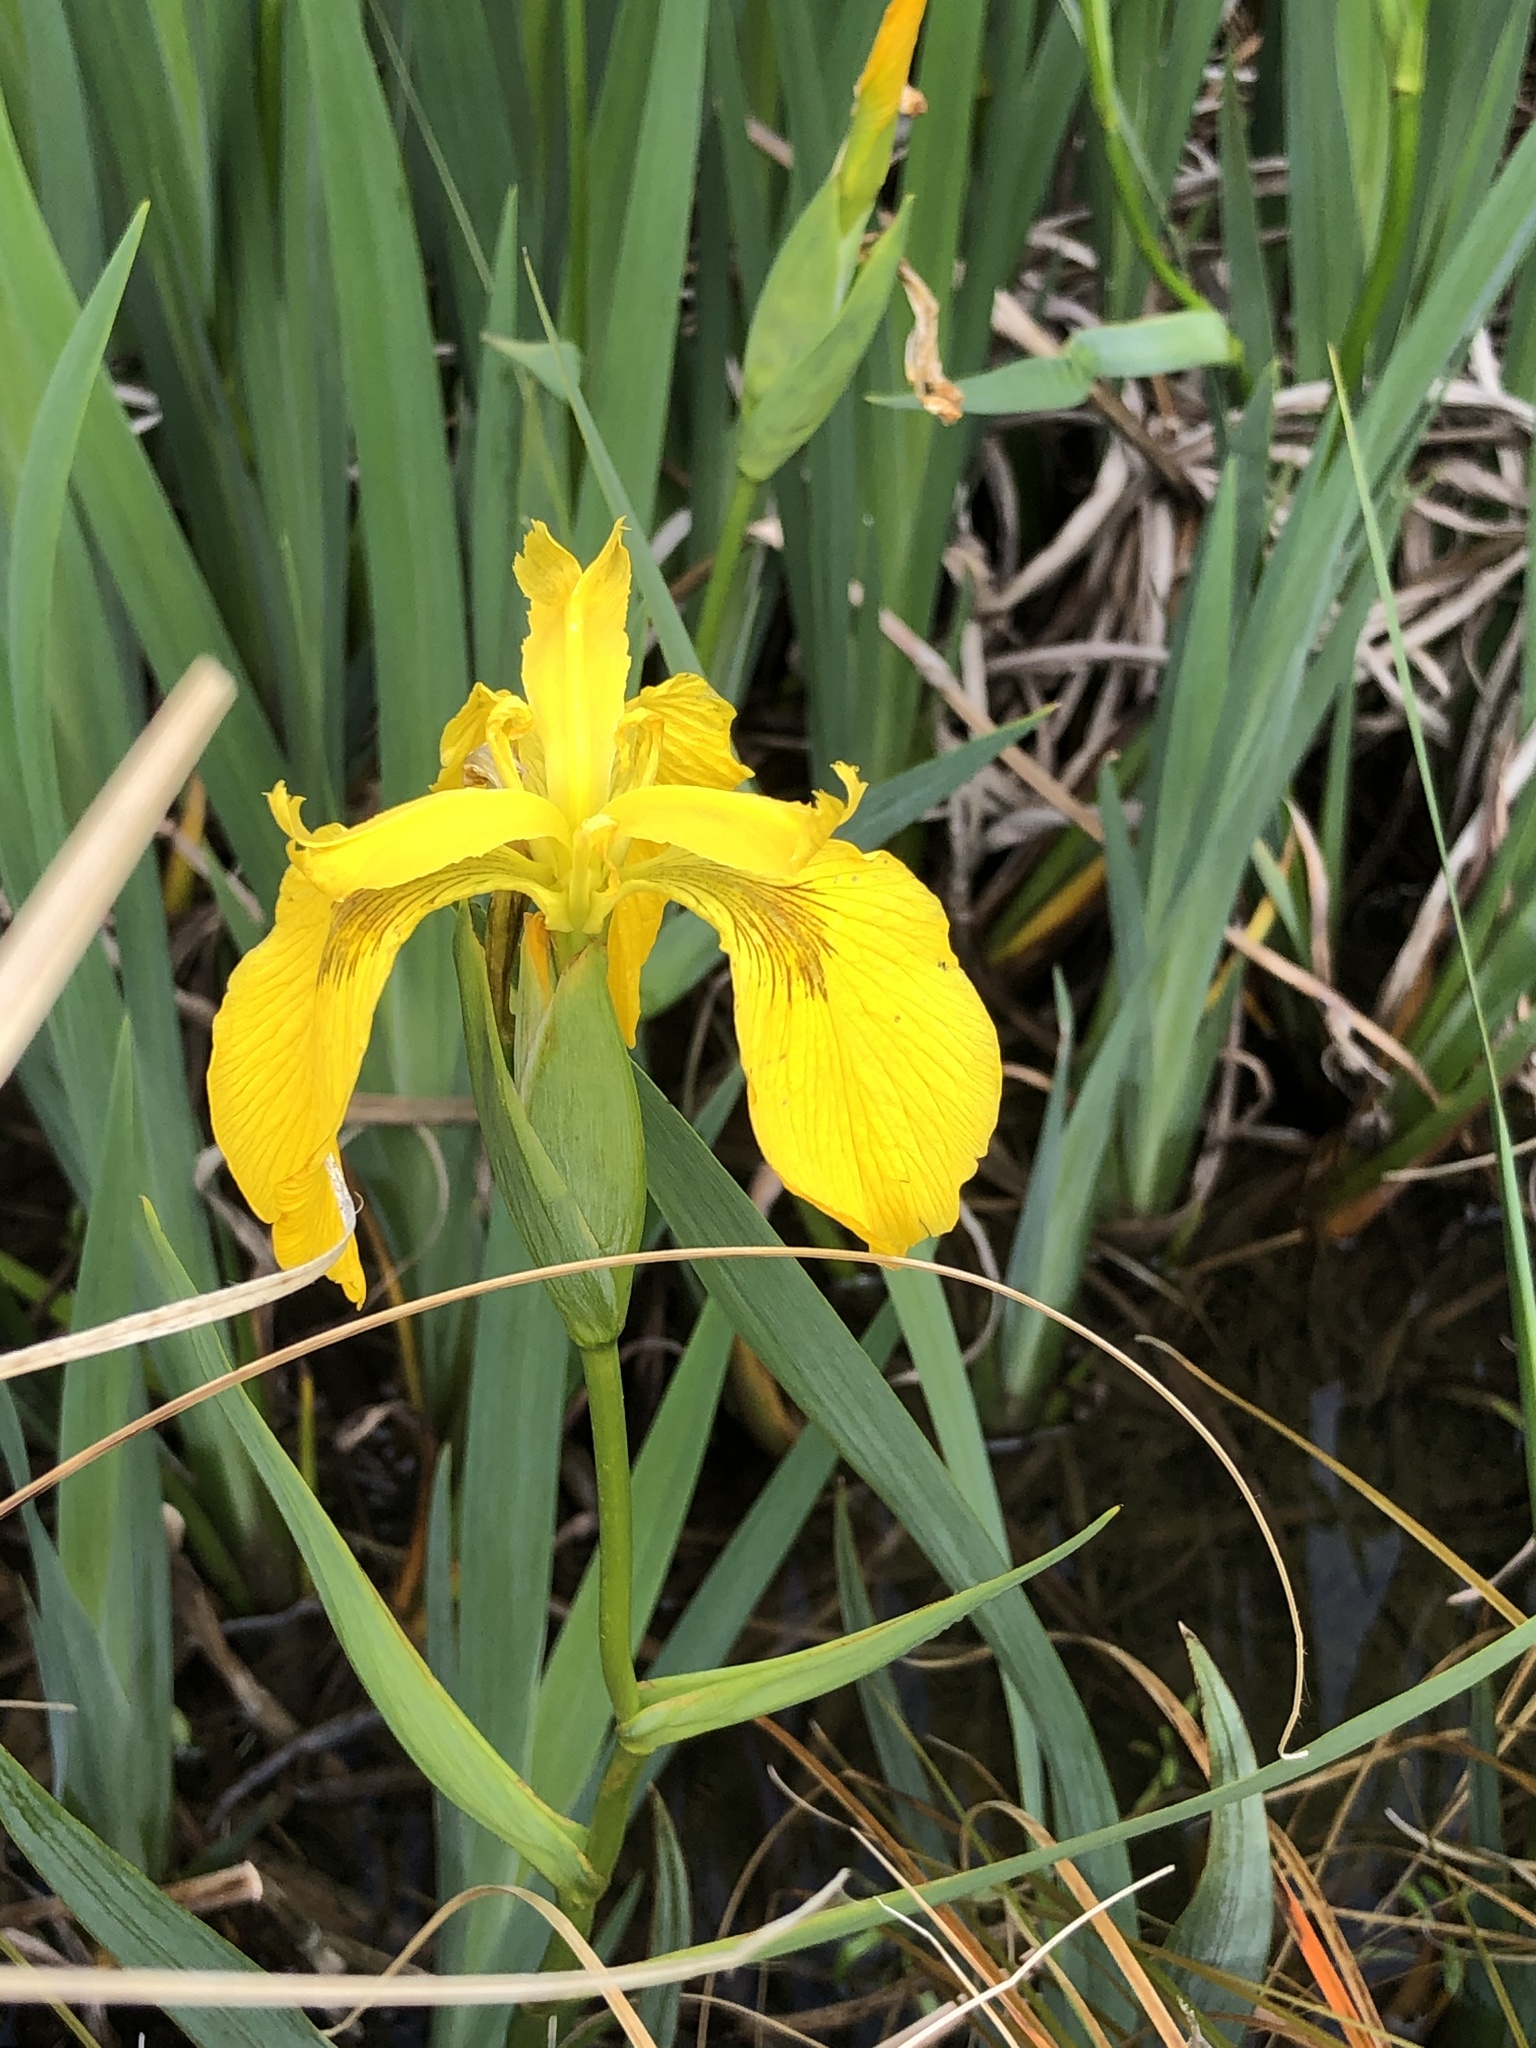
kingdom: Plantae
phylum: Tracheophyta
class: Liliopsida
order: Asparagales
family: Iridaceae
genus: Iris
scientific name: Iris pseudacorus
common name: Yellow flag
